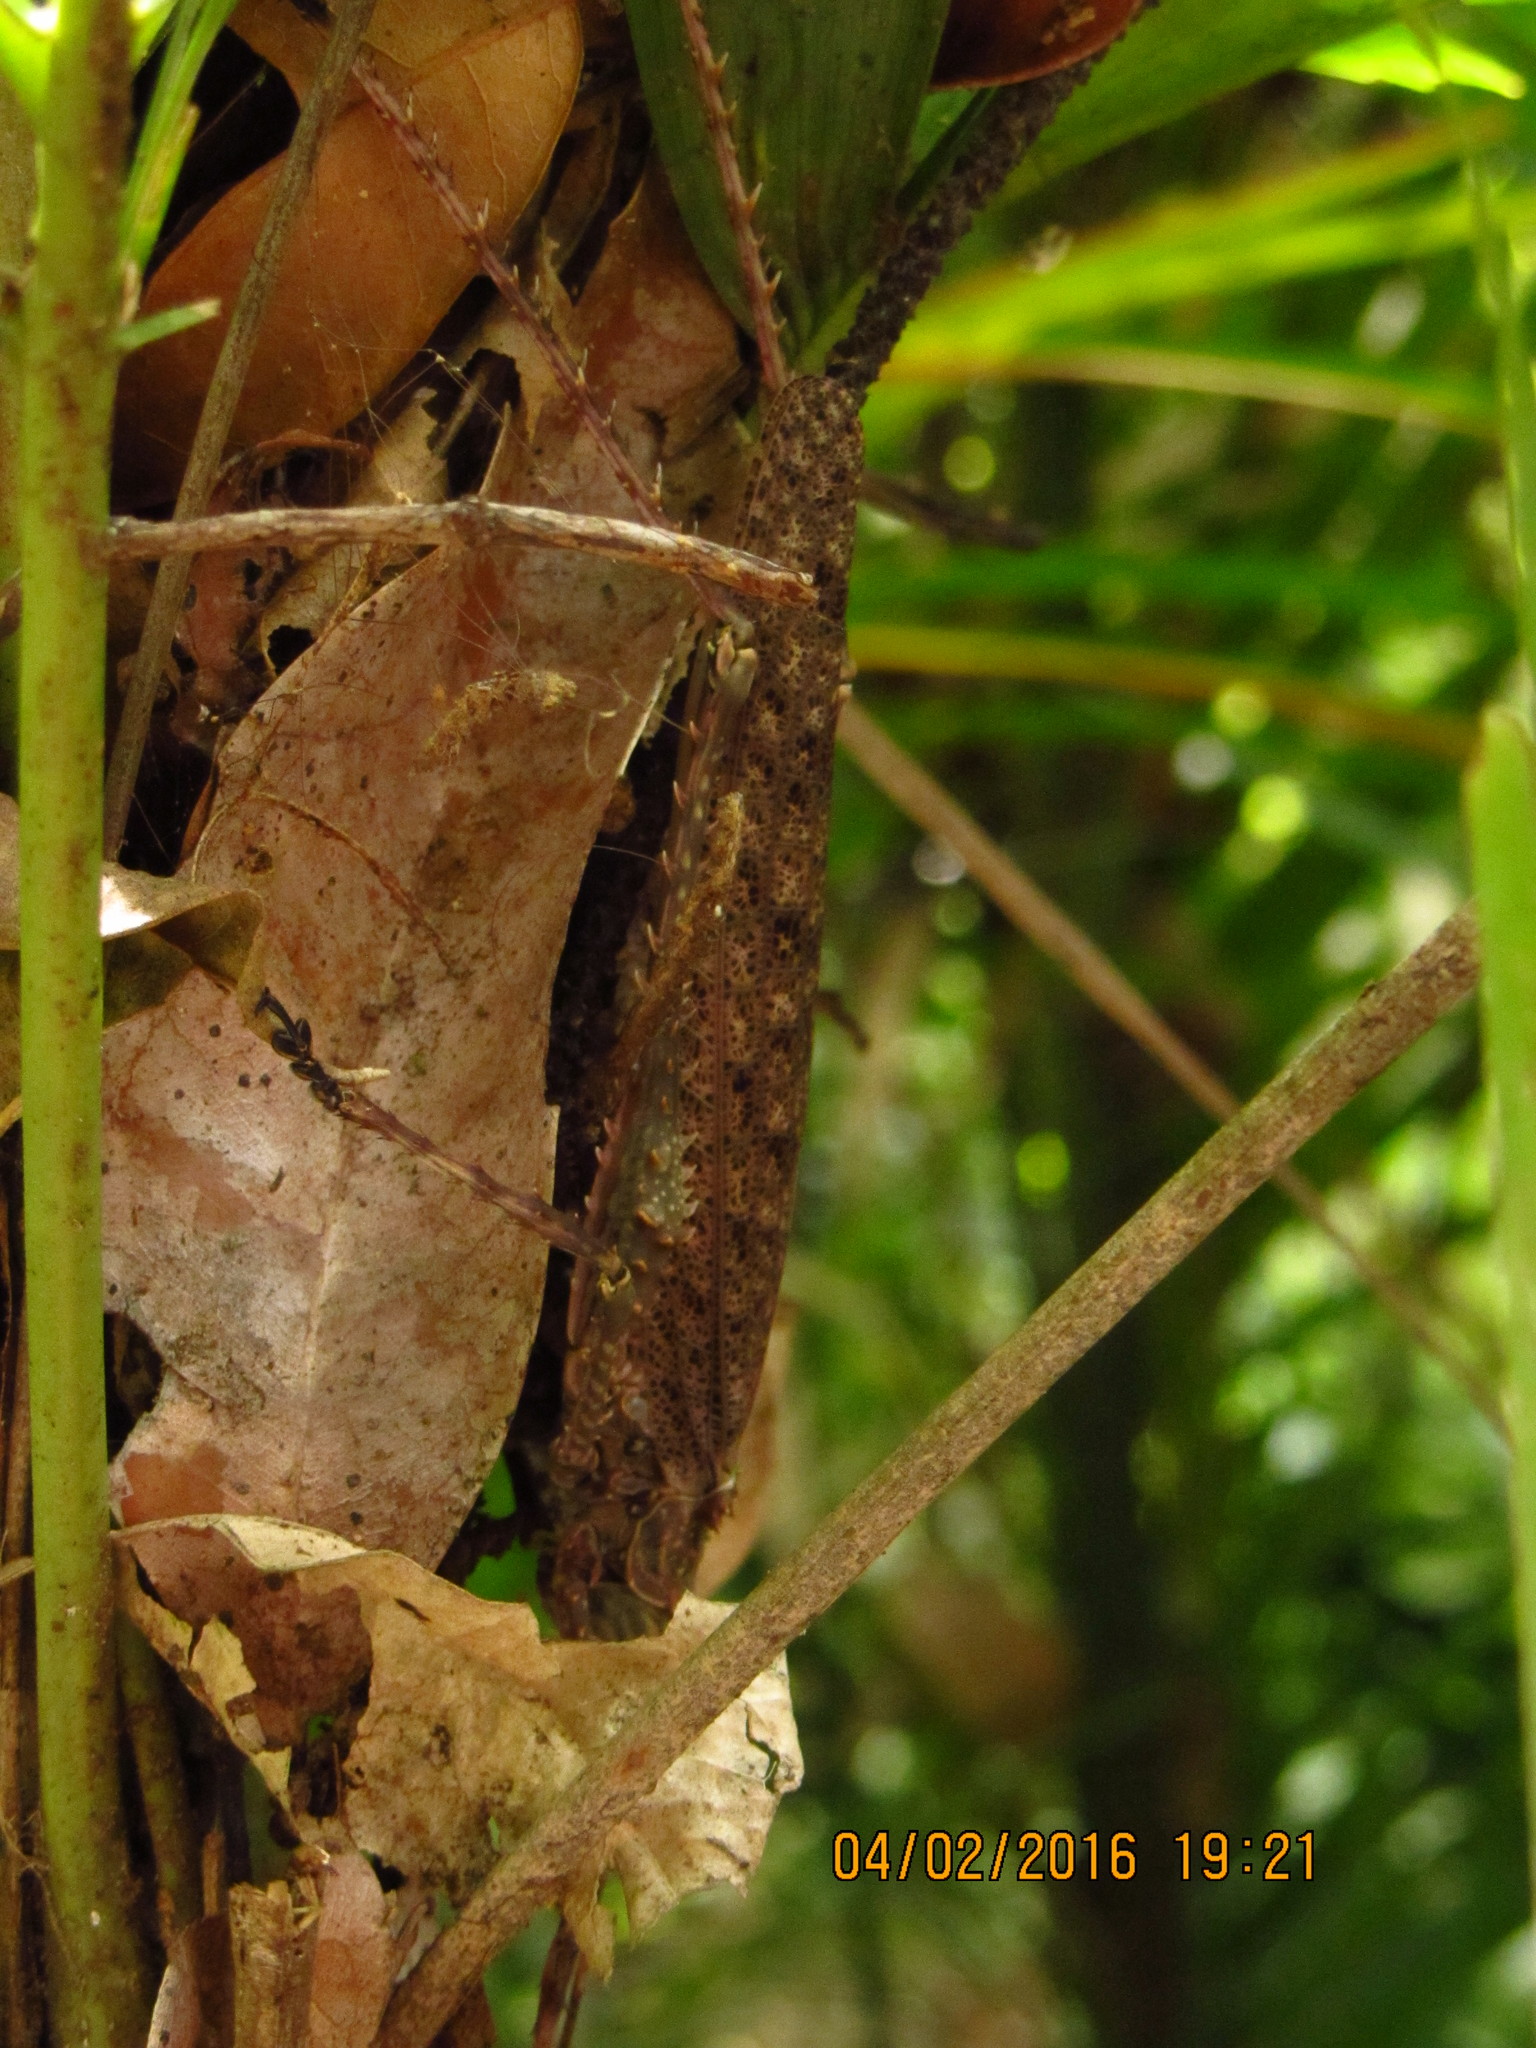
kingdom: Animalia
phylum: Arthropoda
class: Insecta
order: Orthoptera
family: Tettigoniidae
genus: Phricta
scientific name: Phricta spinosa
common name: Giant spiny forest katydid
